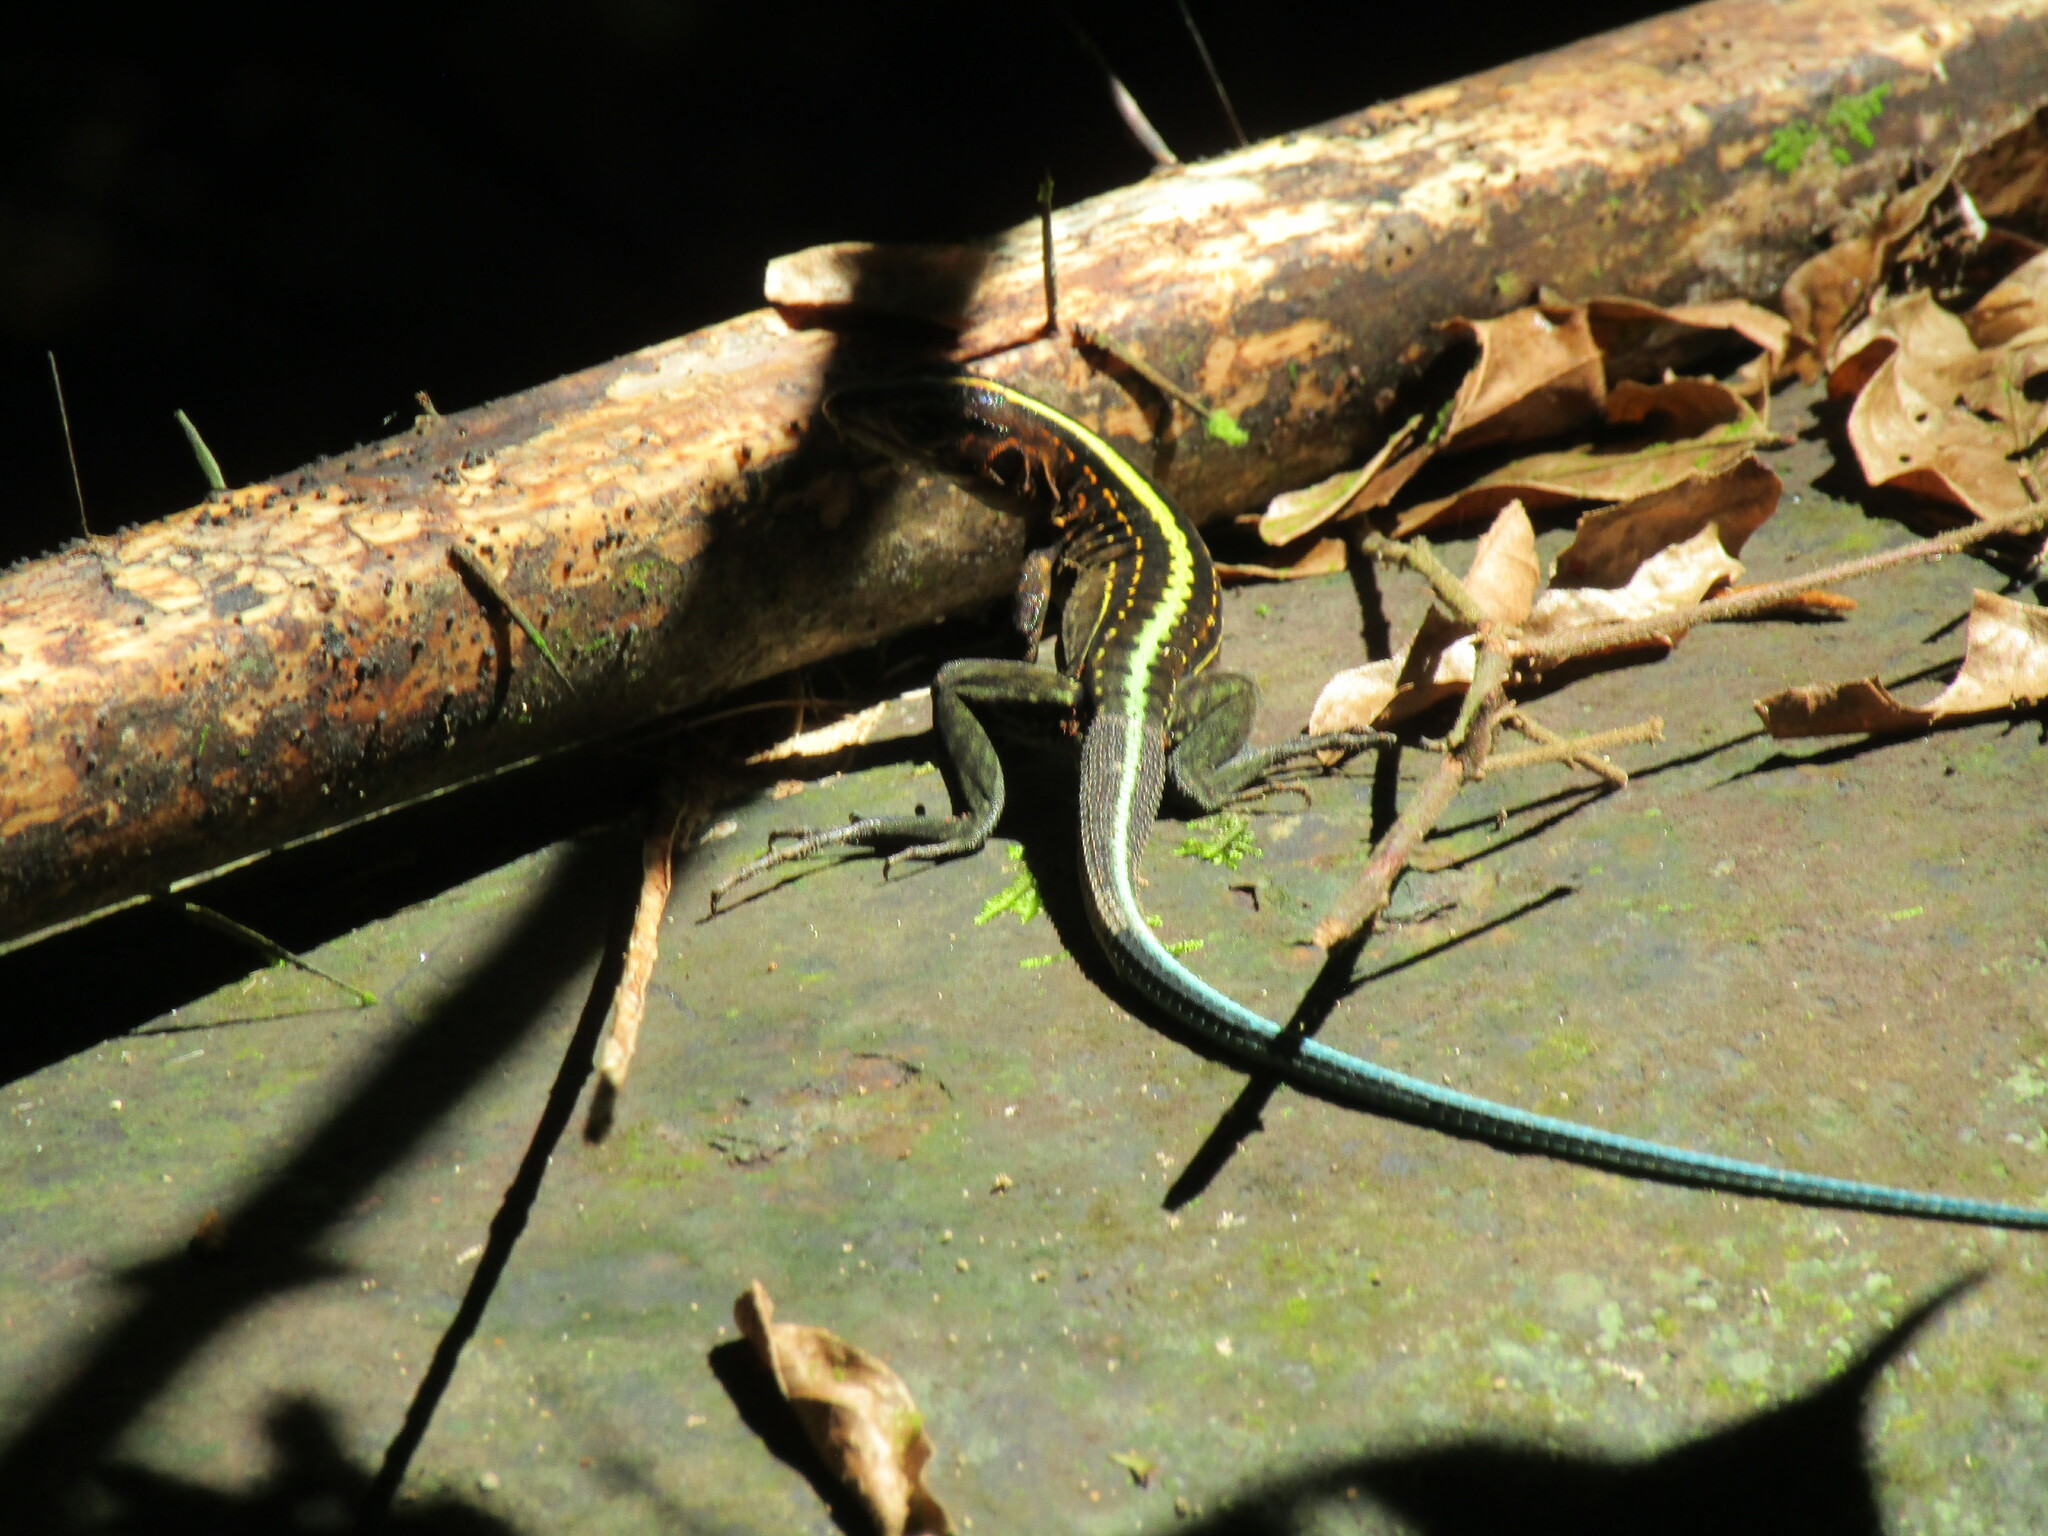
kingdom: Animalia
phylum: Chordata
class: Squamata
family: Teiidae
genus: Holcosus
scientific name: Holcosus festivus
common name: Middle american ameiva
